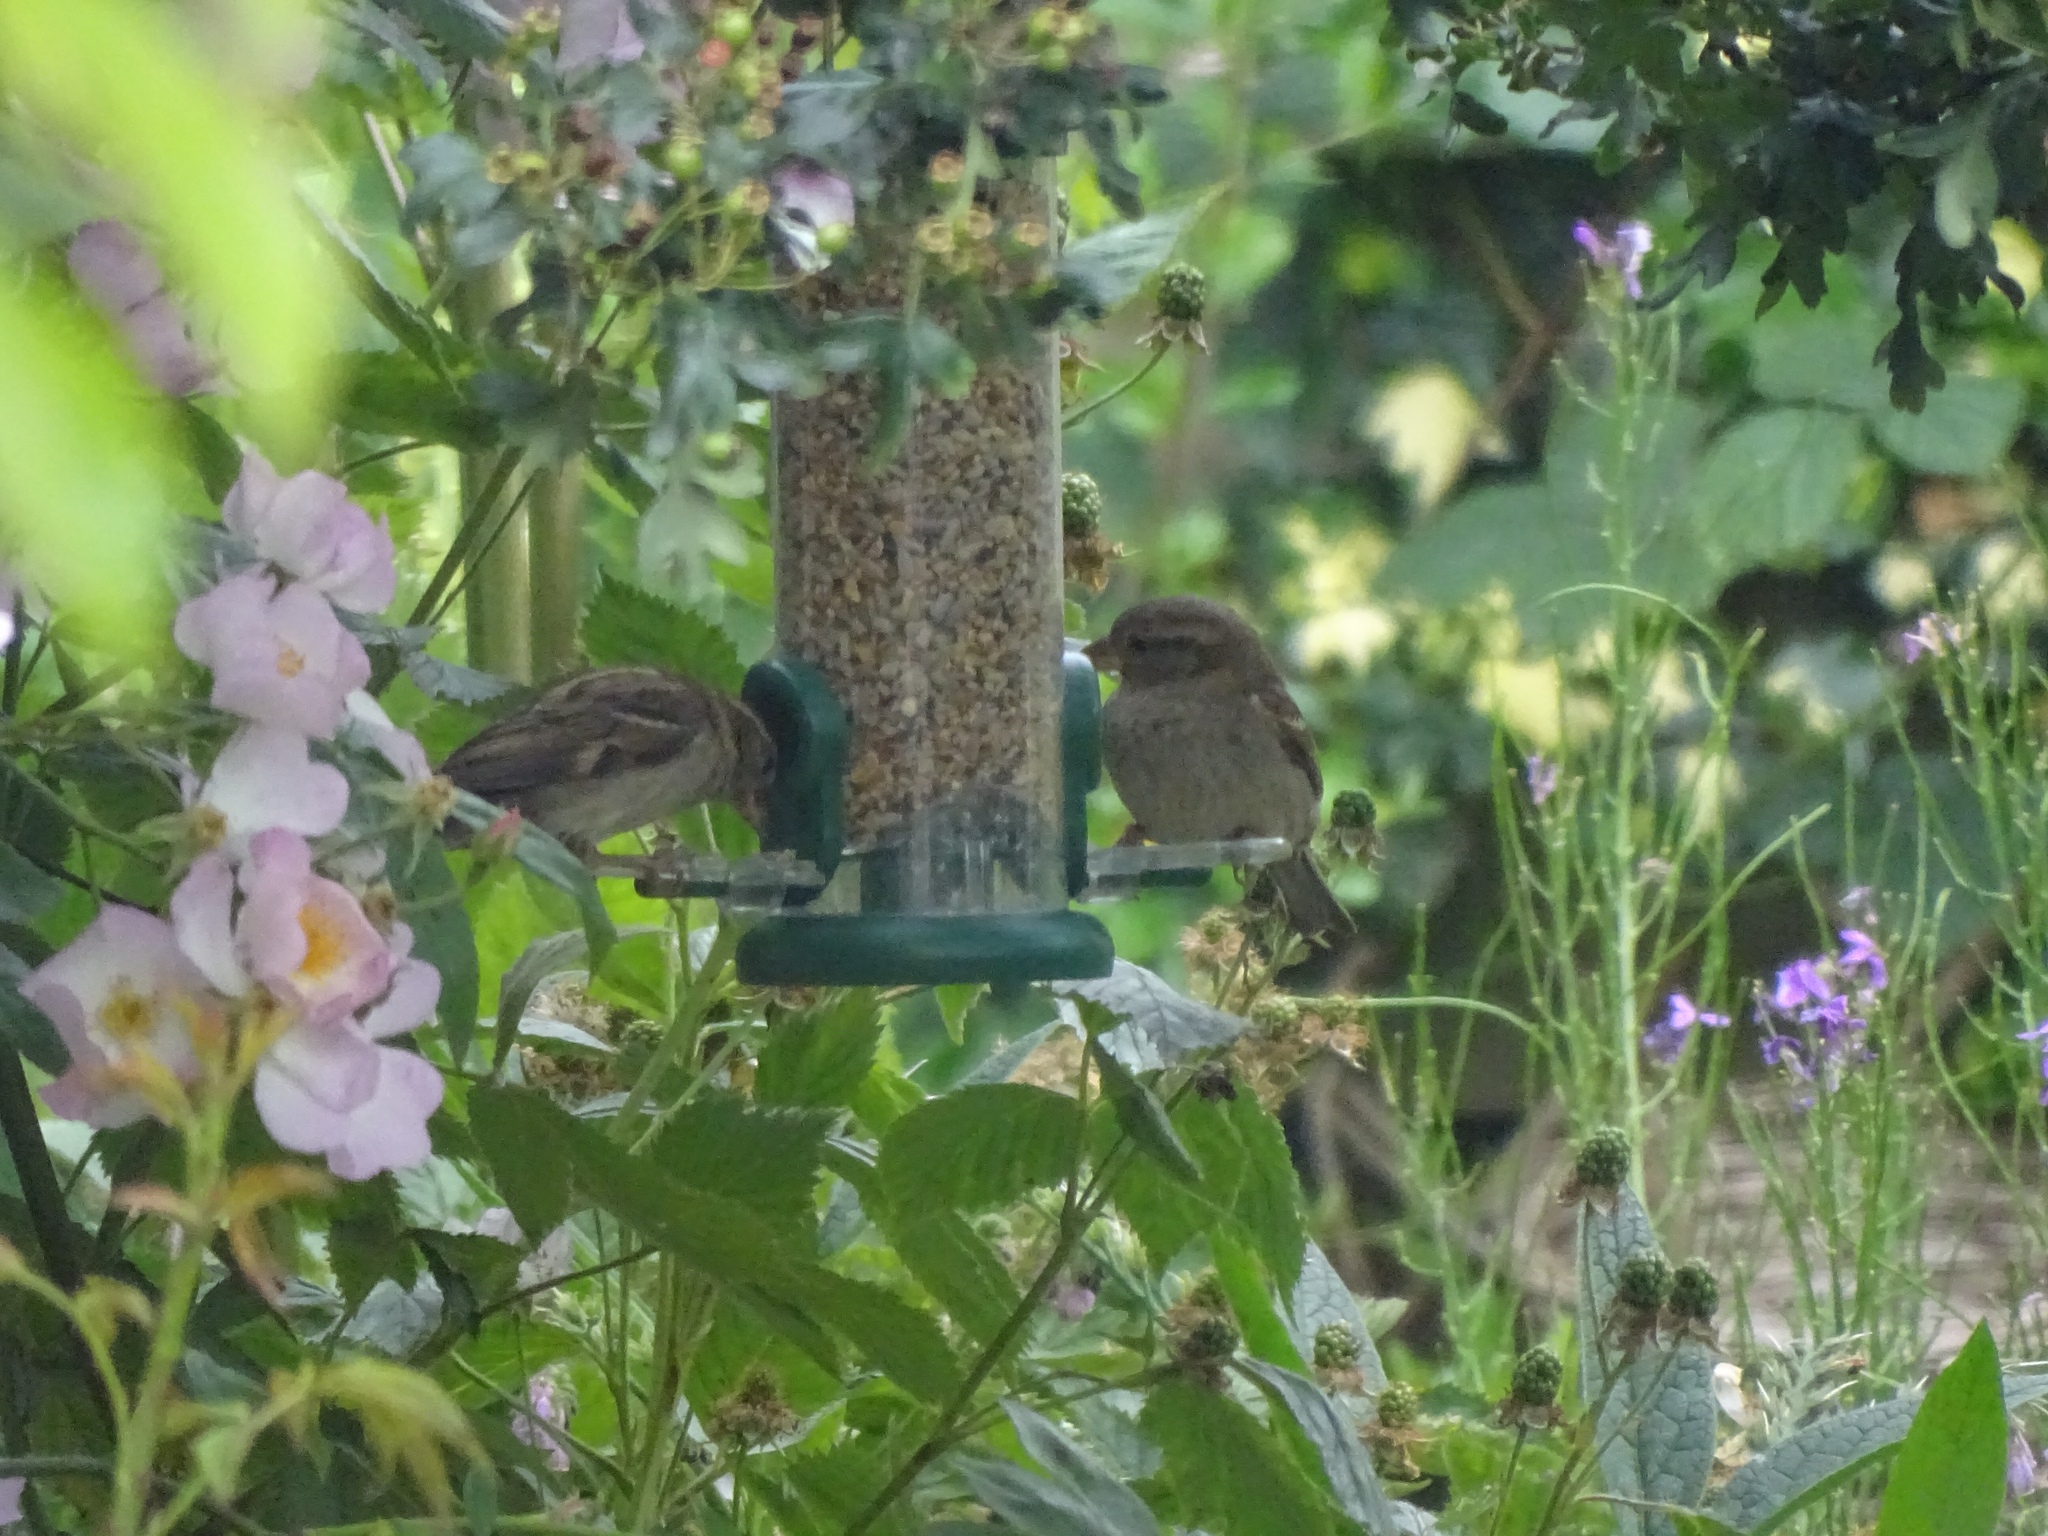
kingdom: Animalia
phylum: Chordata
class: Aves
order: Passeriformes
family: Passeridae
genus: Passer
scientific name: Passer domesticus
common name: House sparrow
